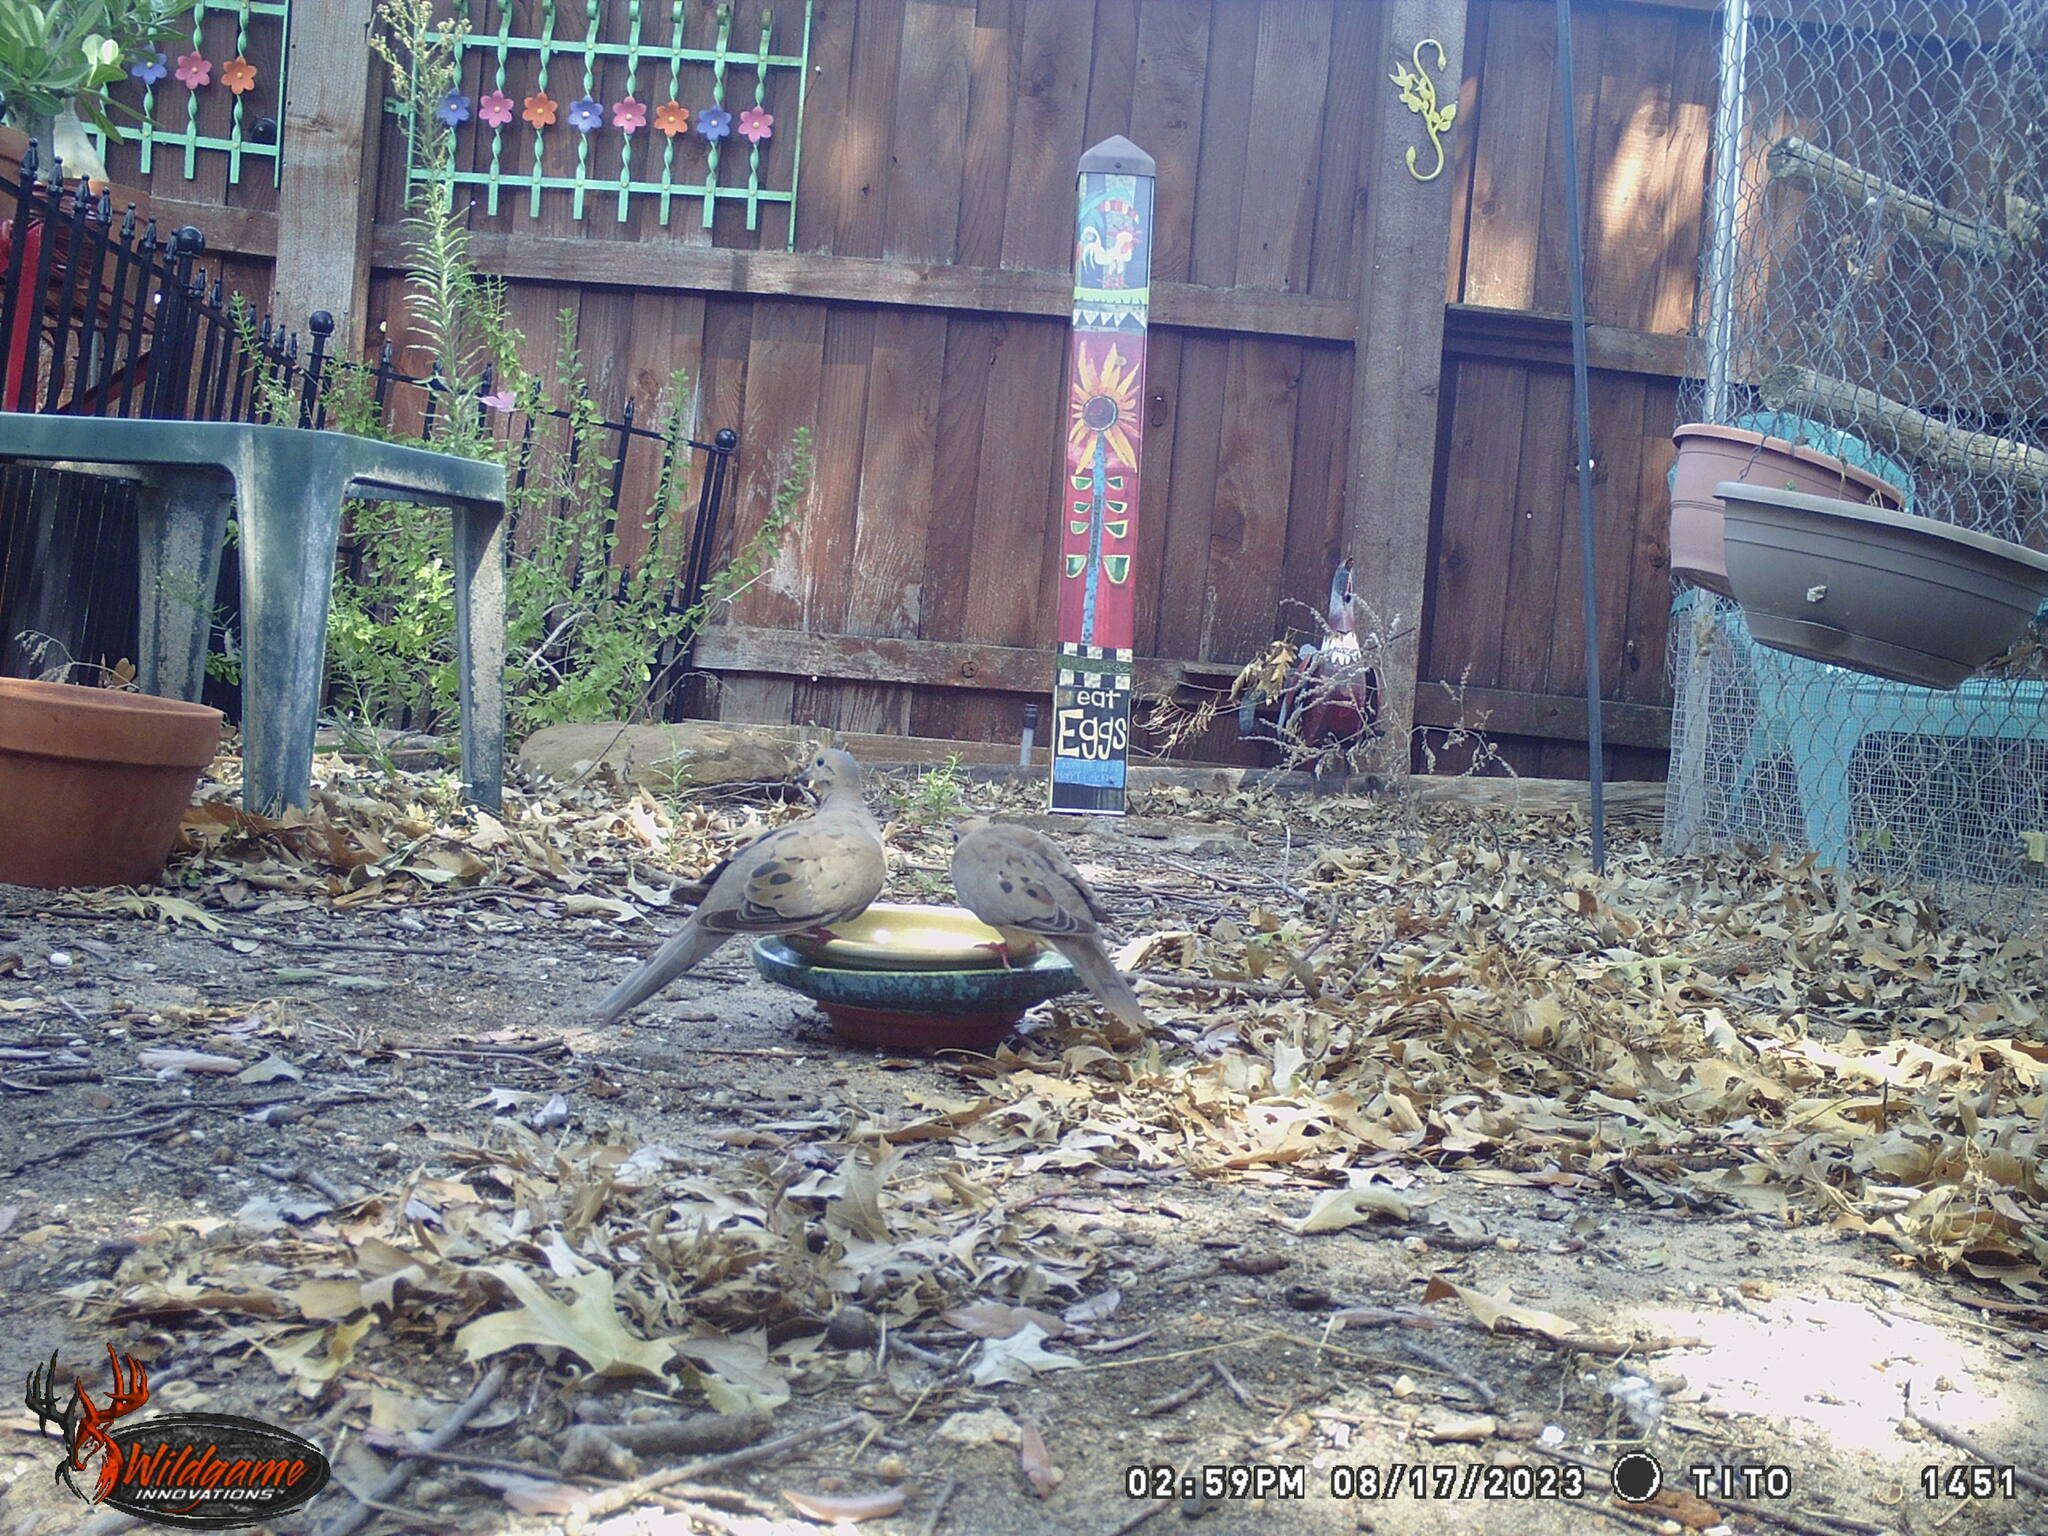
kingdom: Animalia
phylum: Chordata
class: Aves
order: Columbiformes
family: Columbidae
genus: Zenaida
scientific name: Zenaida macroura
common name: Mourning dove
